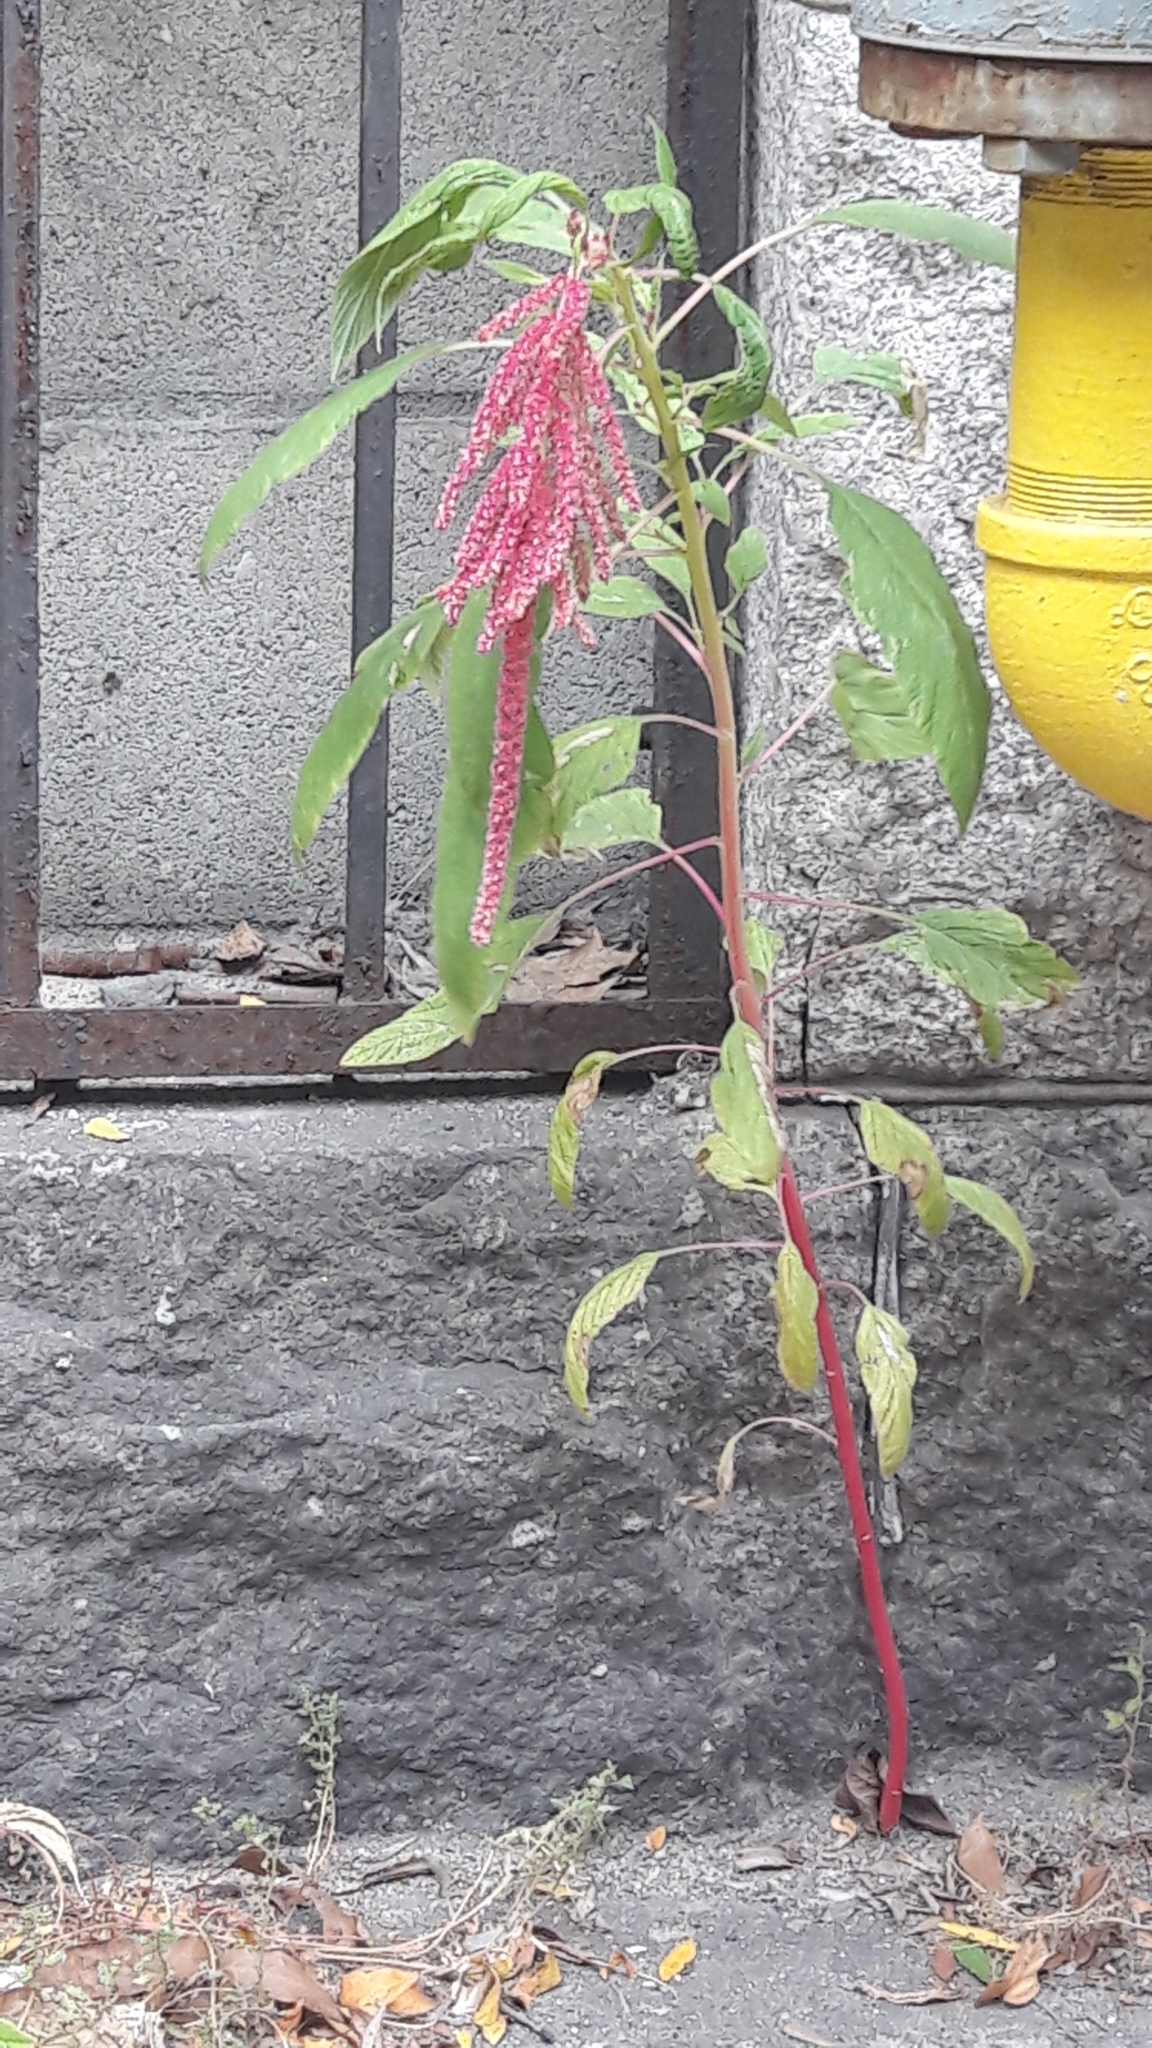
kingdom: Plantae
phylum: Tracheophyta
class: Magnoliopsida
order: Caryophyllales
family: Amaranthaceae
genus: Amaranthus
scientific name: Amaranthus cruentus
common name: Purple amaranth
